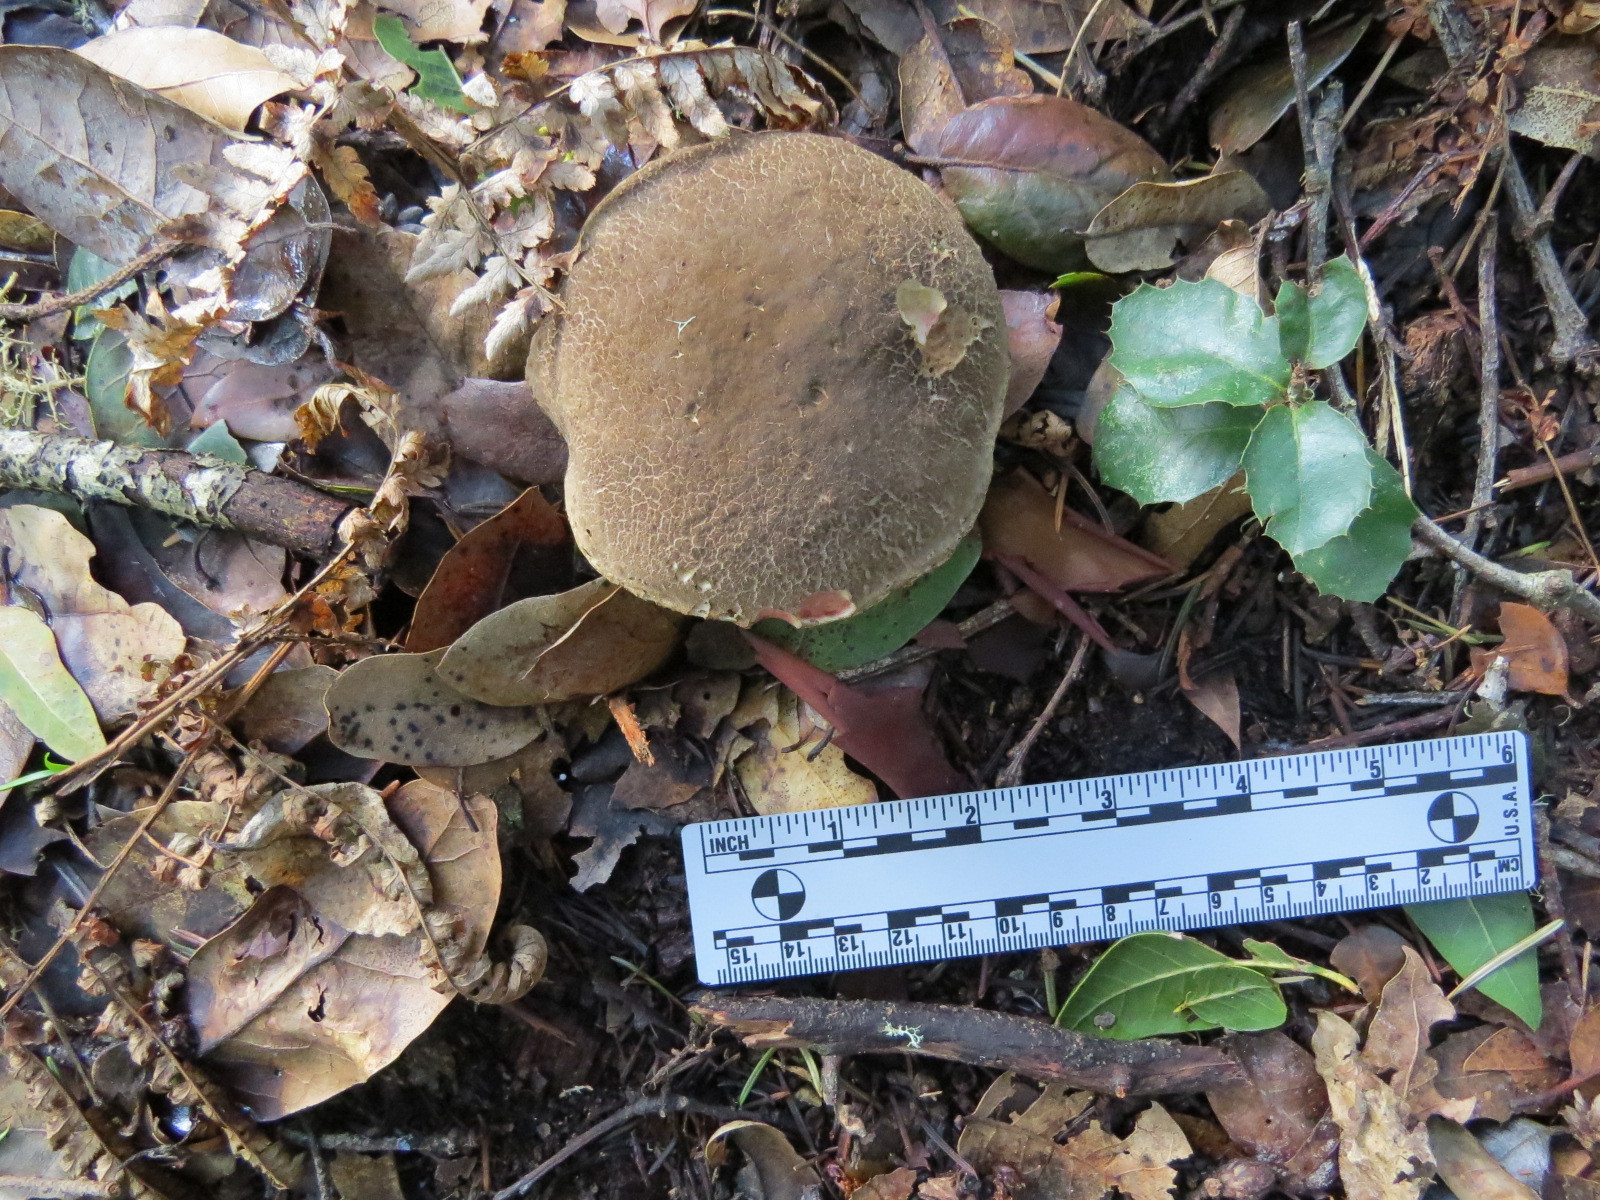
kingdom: Fungi
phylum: Basidiomycota
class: Agaricomycetes
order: Boletales
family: Boletaceae
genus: Xerocomellus
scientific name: Xerocomellus mendocinensis
